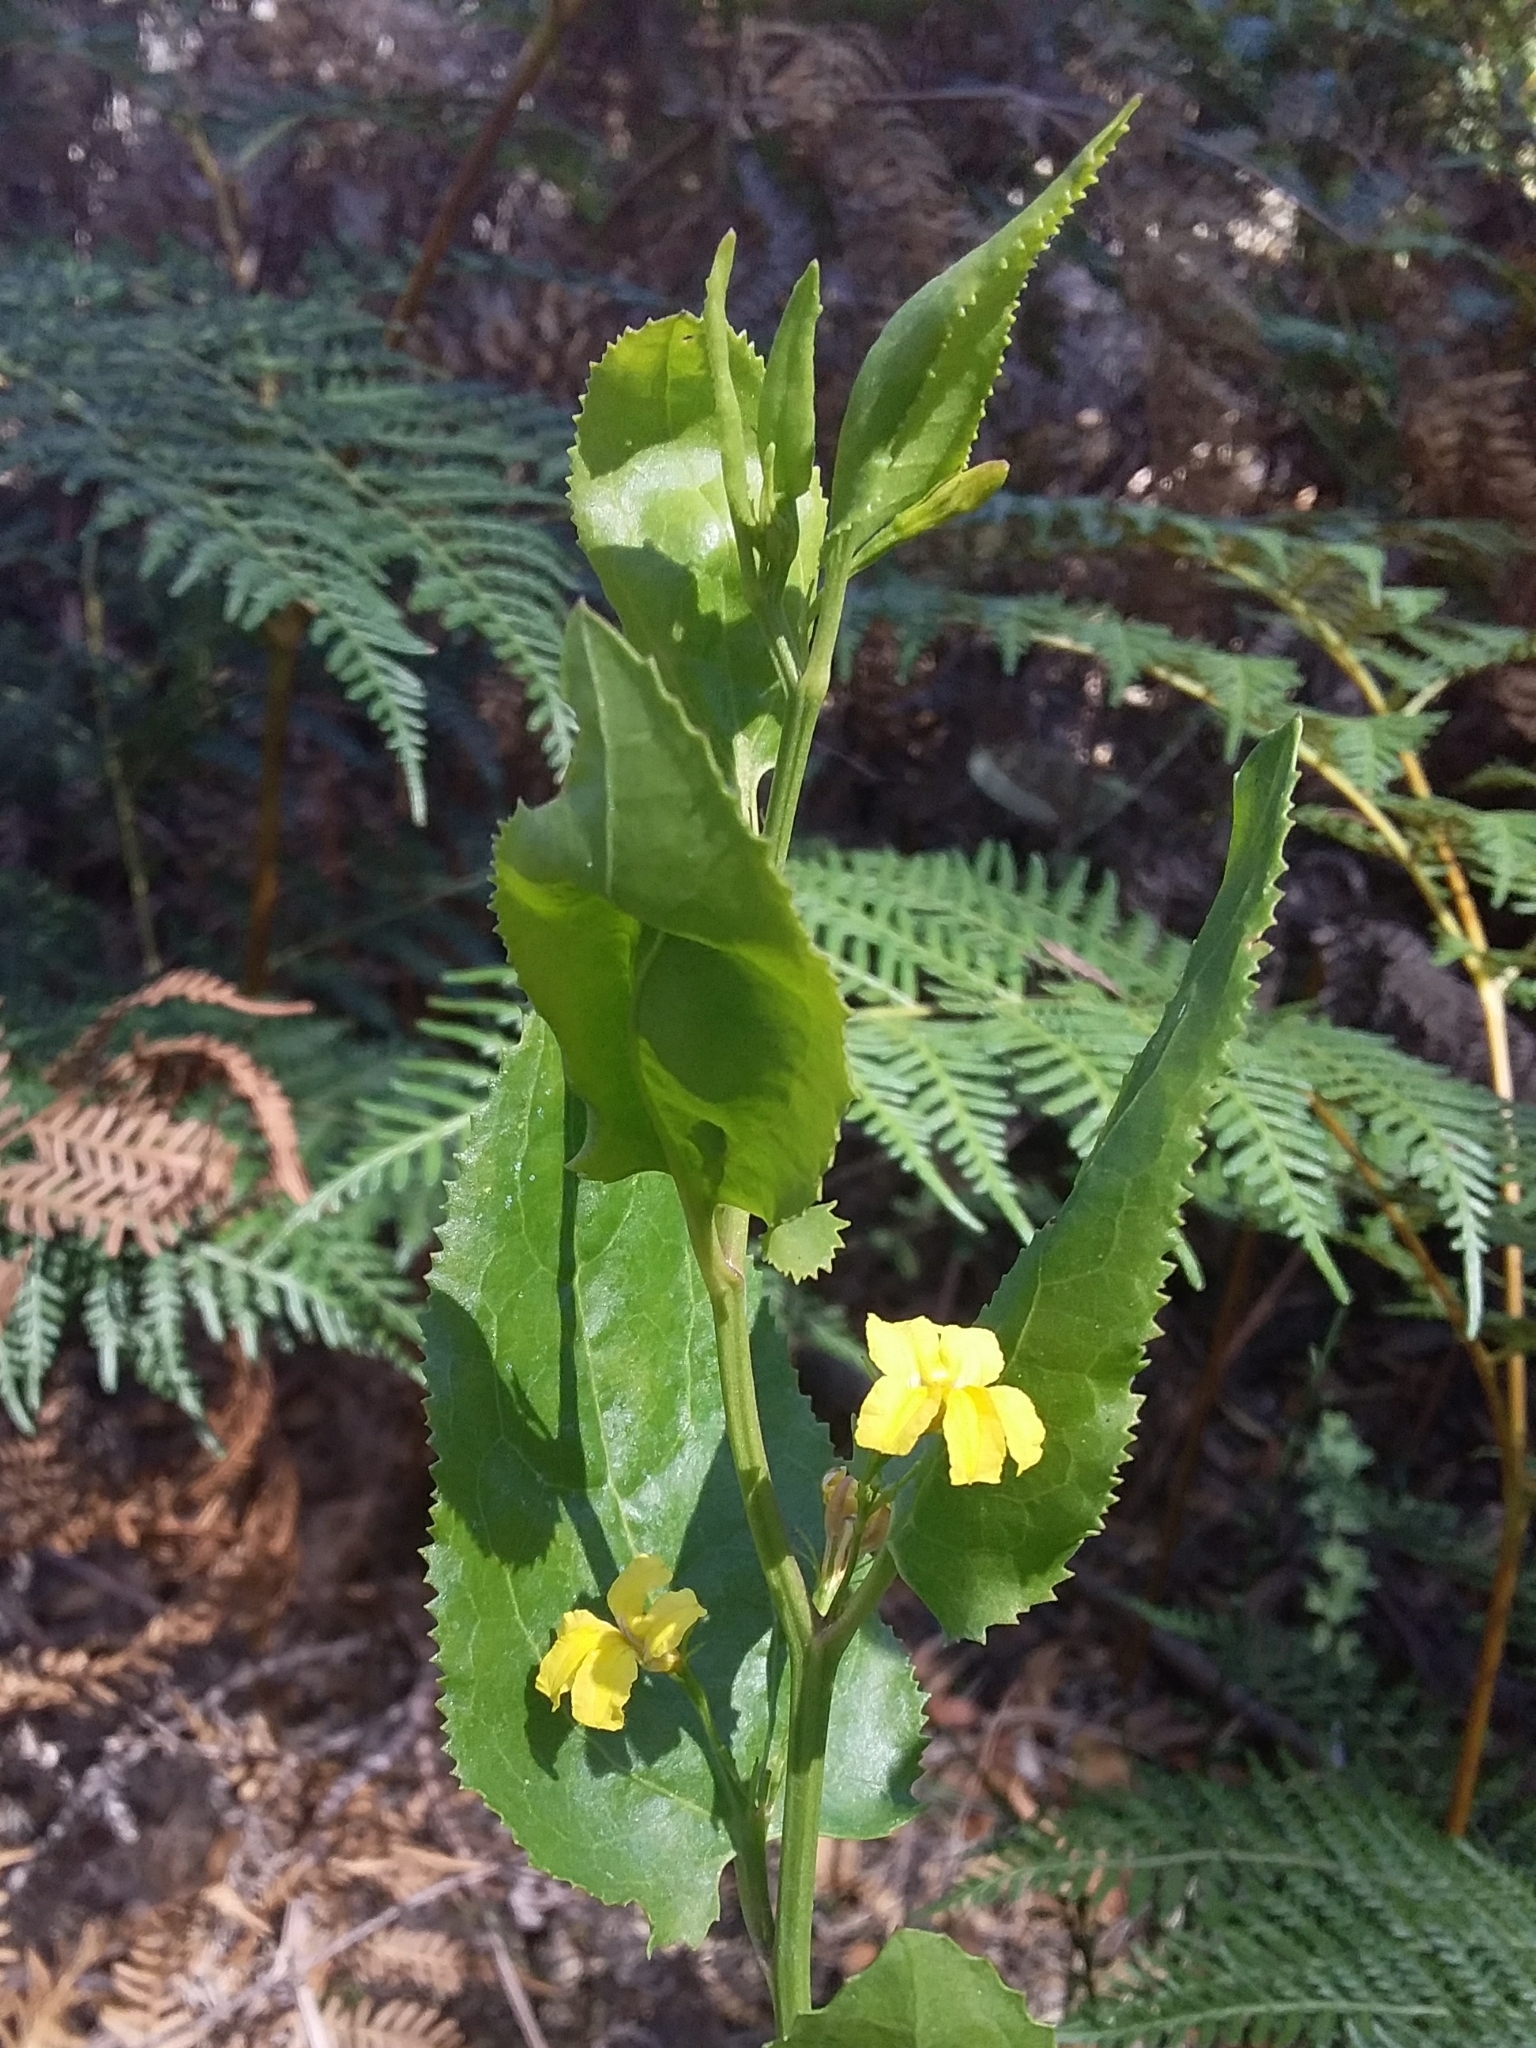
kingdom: Plantae
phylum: Tracheophyta
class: Magnoliopsida
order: Asterales
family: Goodeniaceae
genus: Goodenia
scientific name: Goodenia ovata
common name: Hop goodenia
